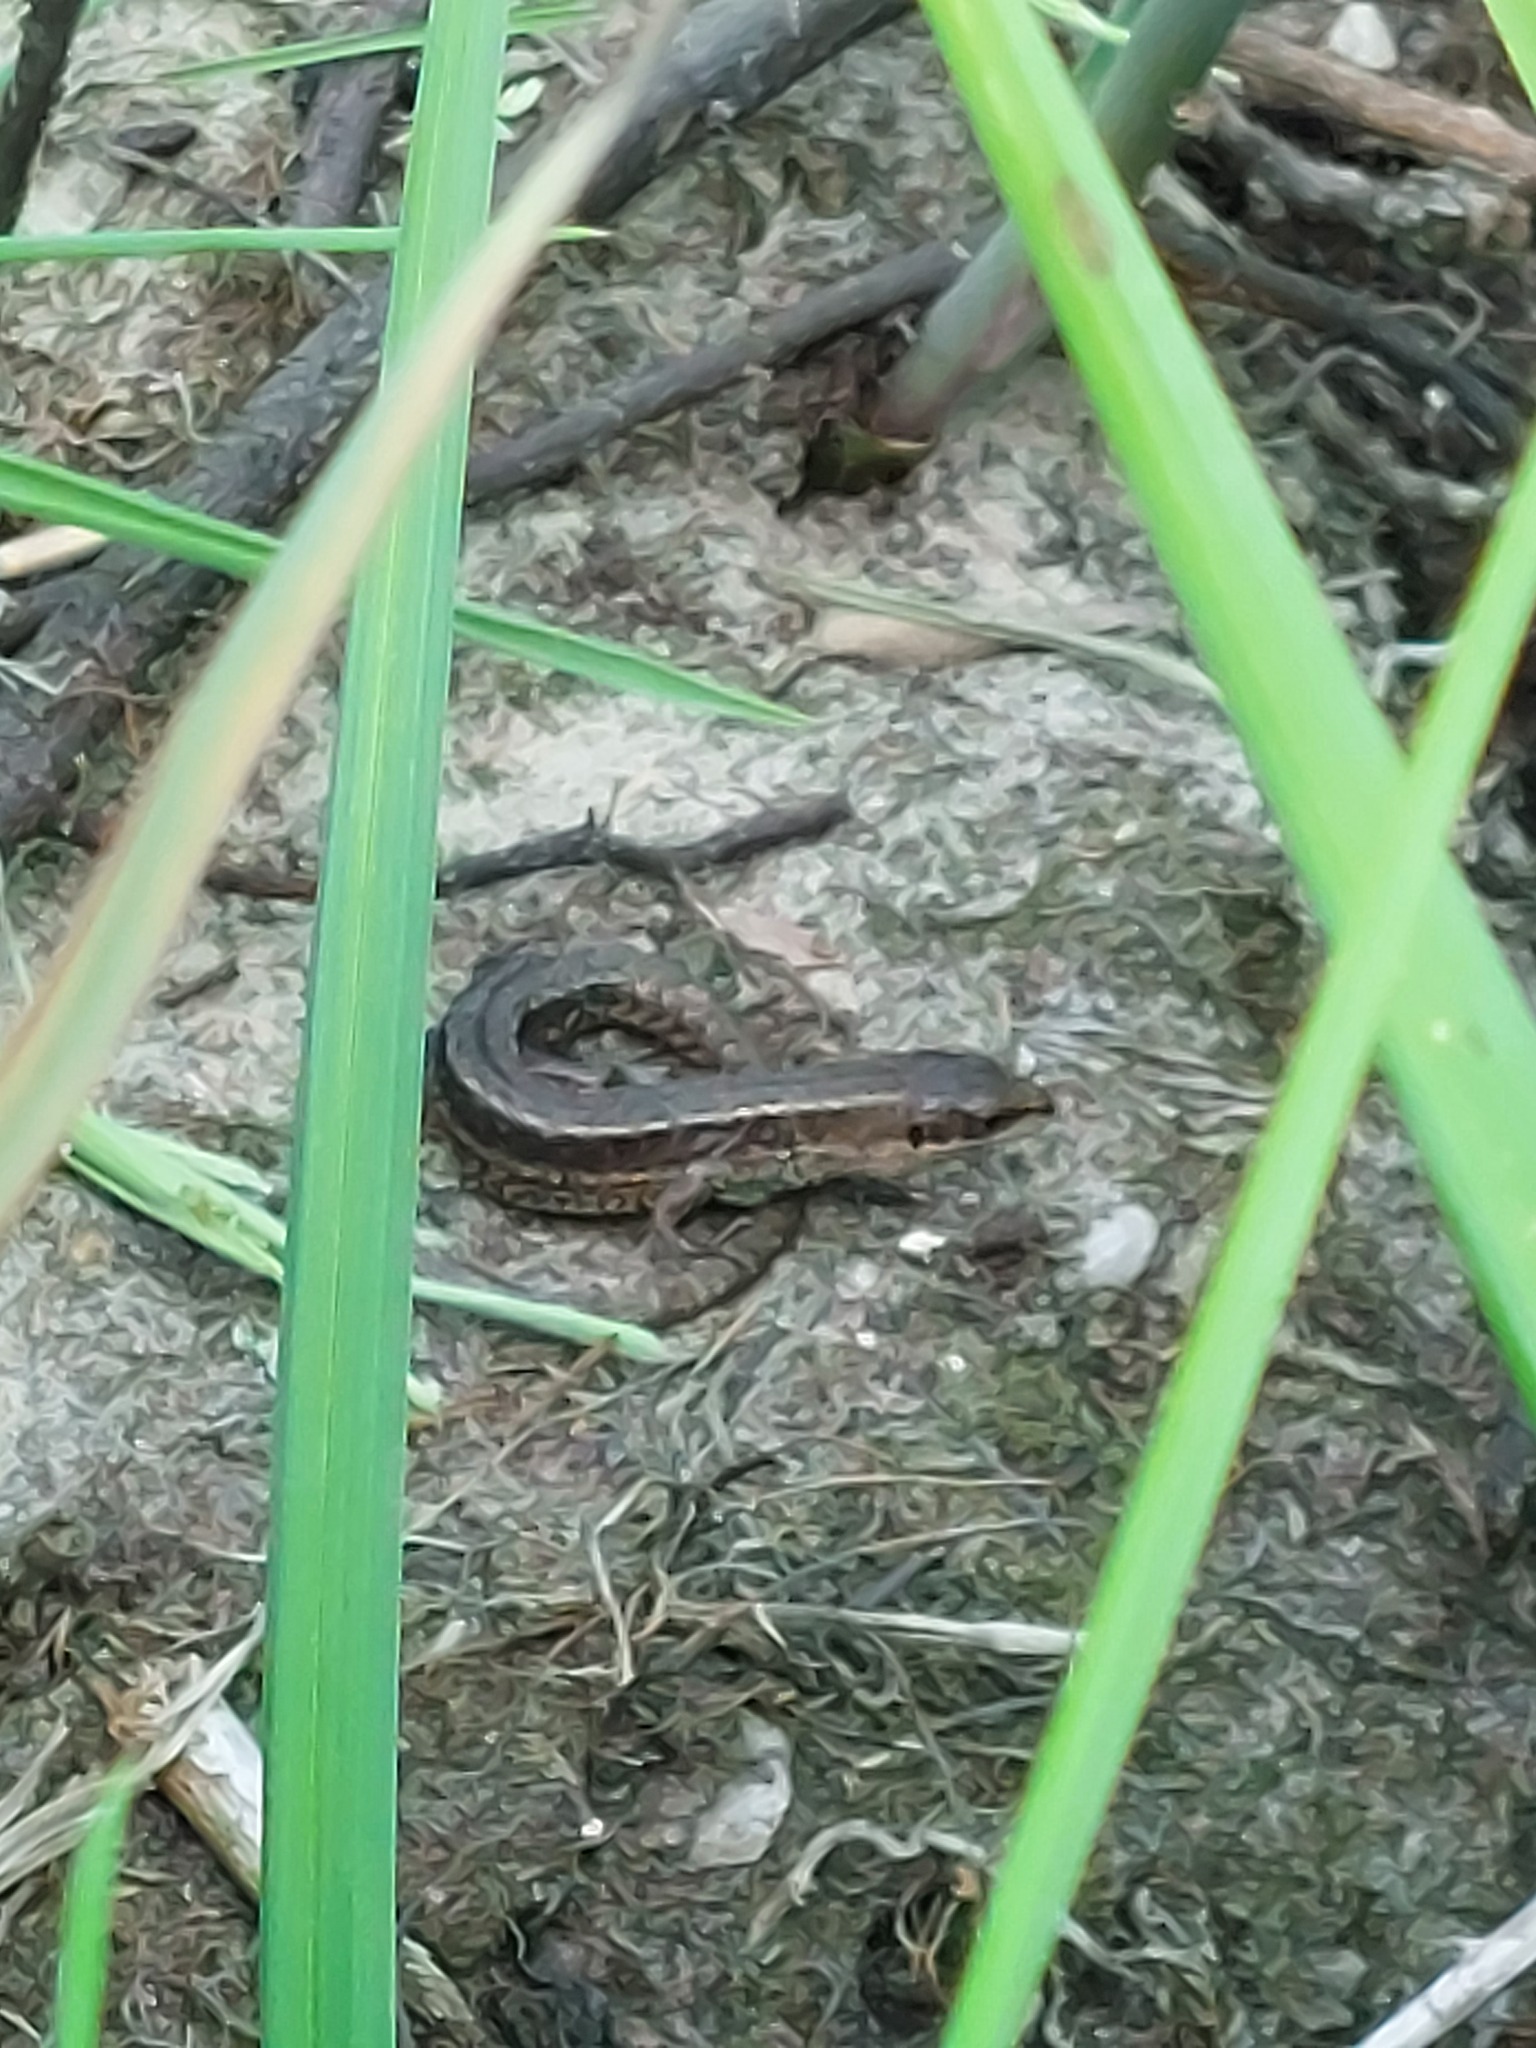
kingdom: Animalia
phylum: Chordata
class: Squamata
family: Lacertidae
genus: Zootoca
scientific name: Zootoca vivipara
